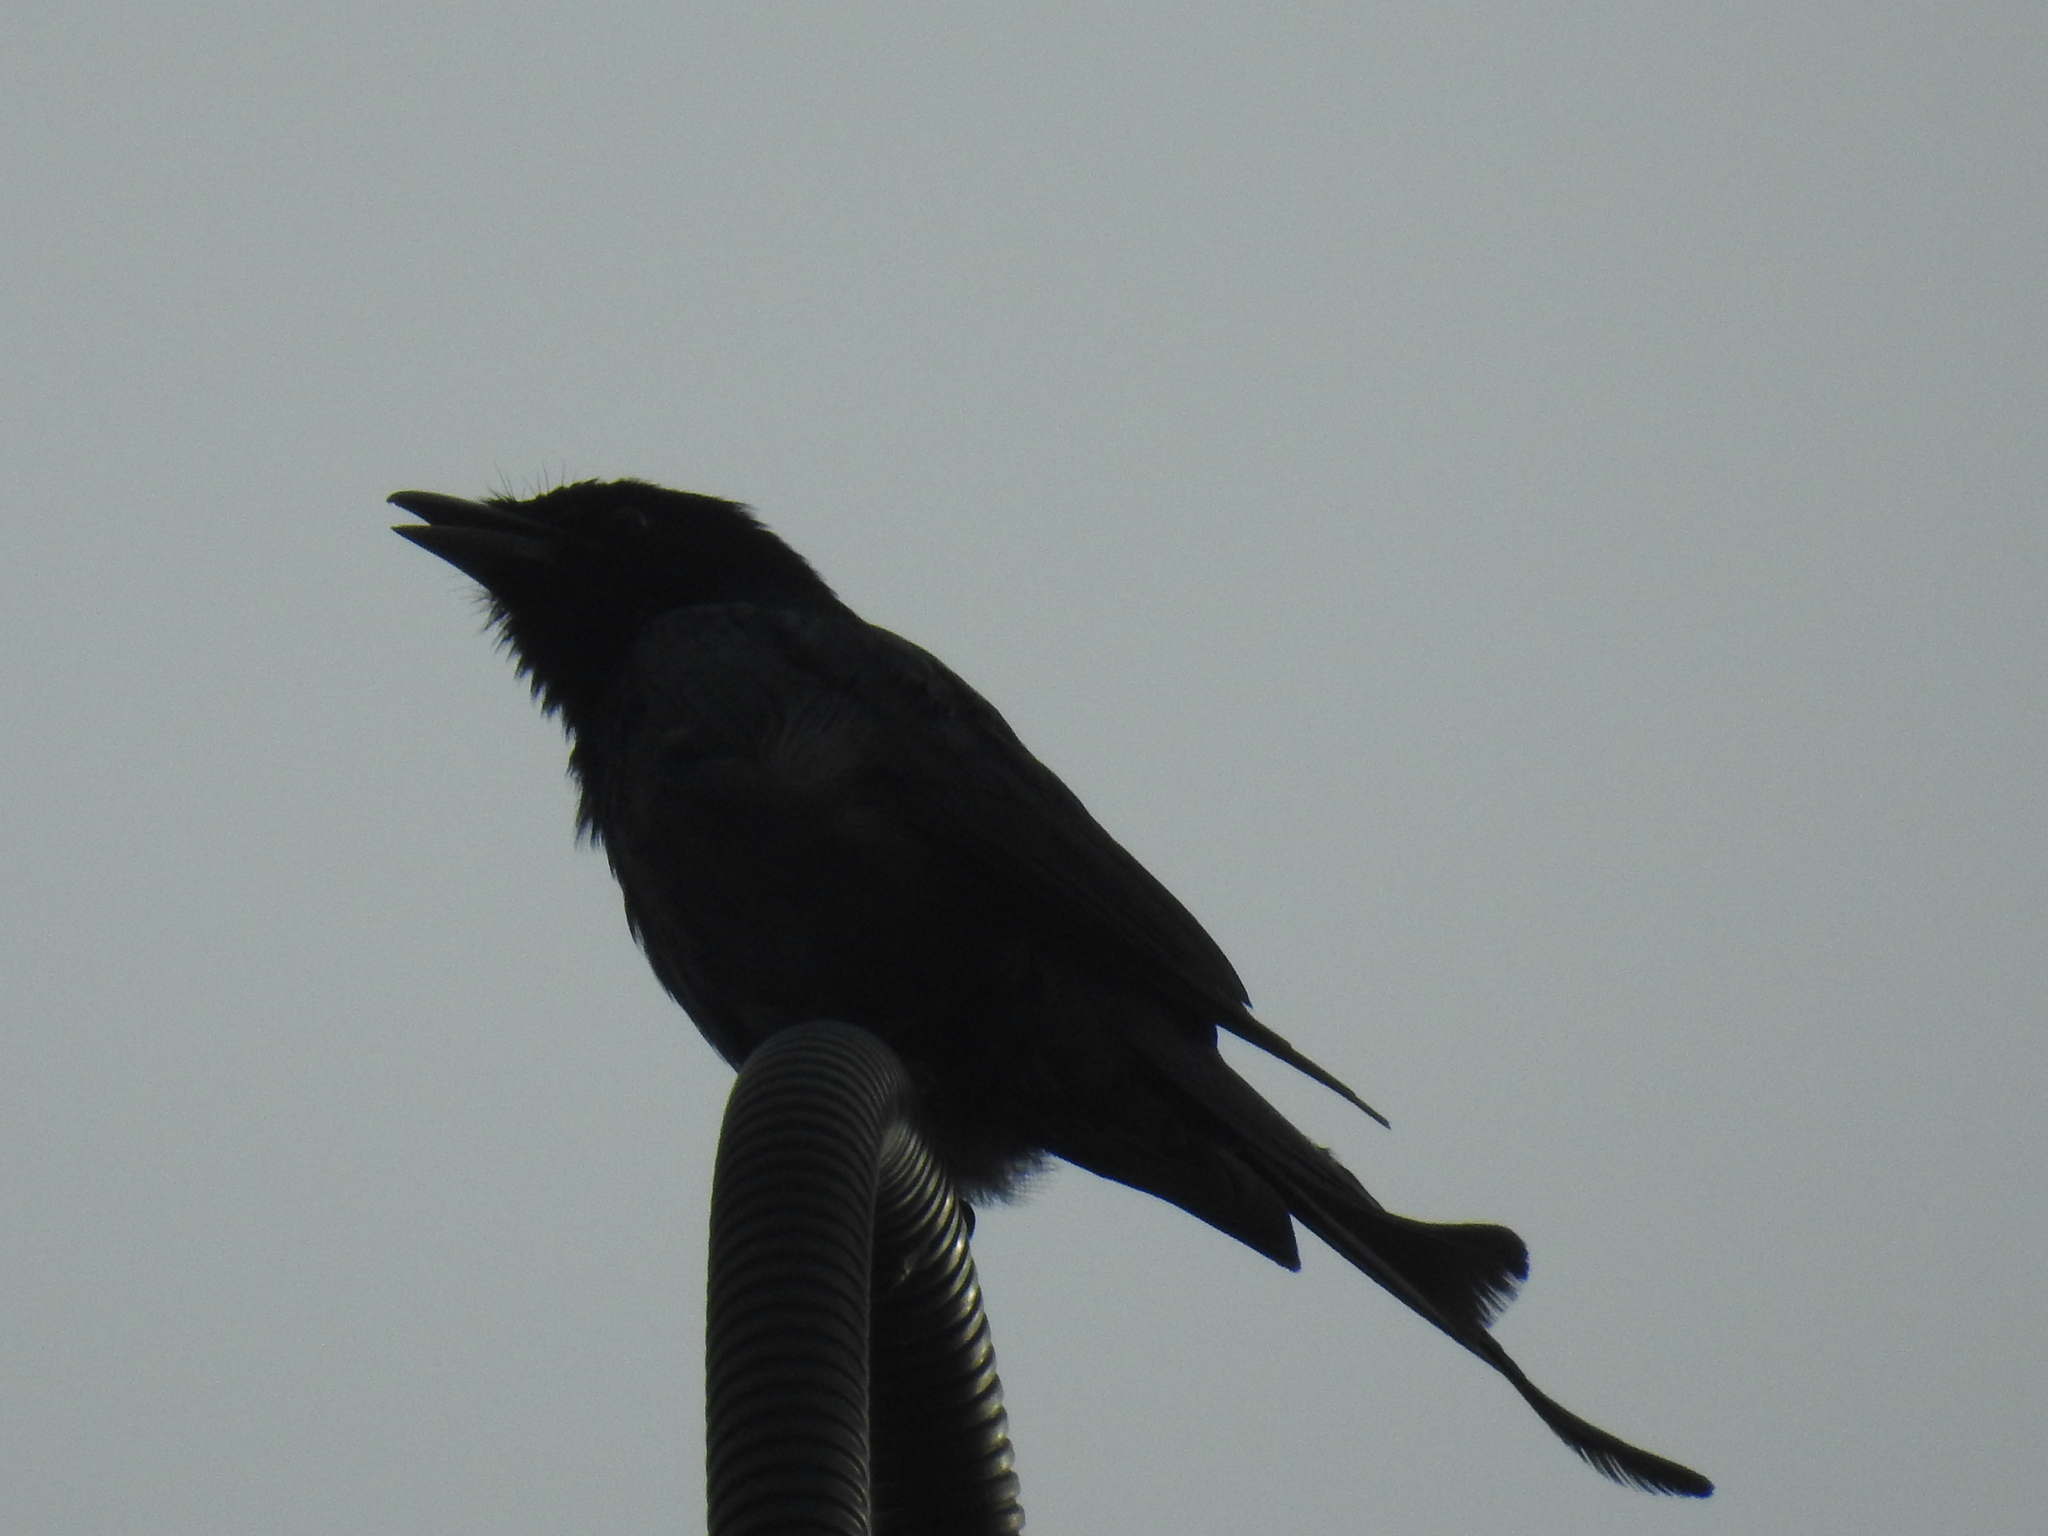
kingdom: Animalia
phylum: Chordata
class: Aves
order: Passeriformes
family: Dicruridae
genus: Dicrurus
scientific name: Dicrurus macrocercus
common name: Black drongo
